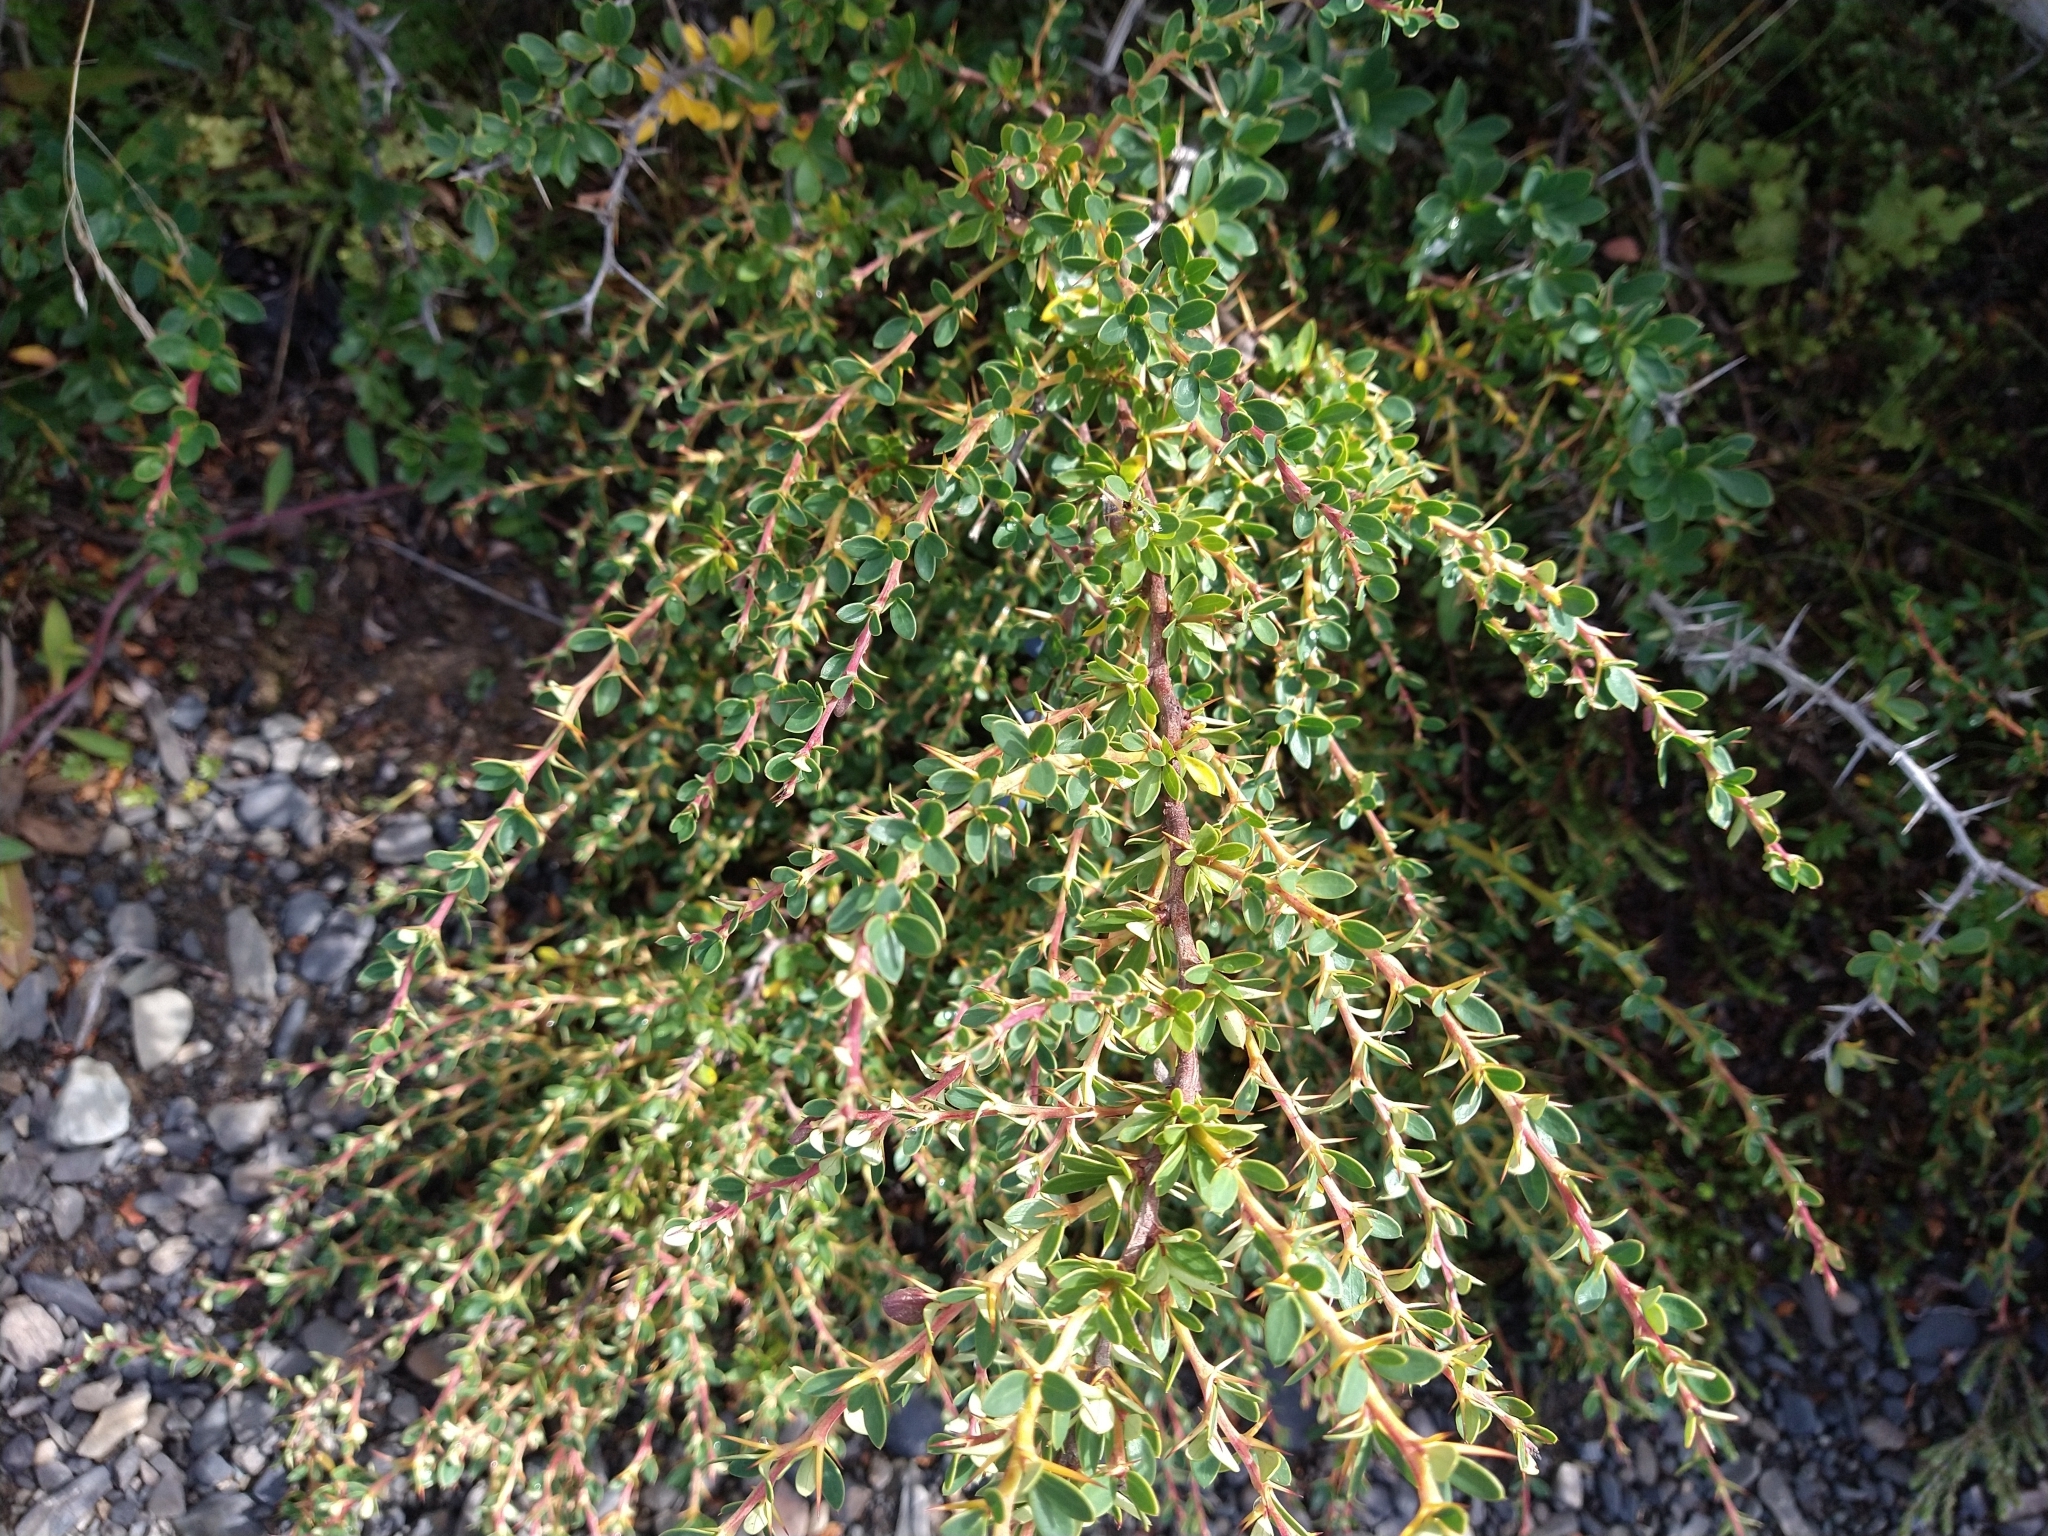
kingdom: Plantae
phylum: Tracheophyta
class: Magnoliopsida
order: Ranunculales
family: Berberidaceae
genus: Berberis
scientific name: Berberis microphylla
